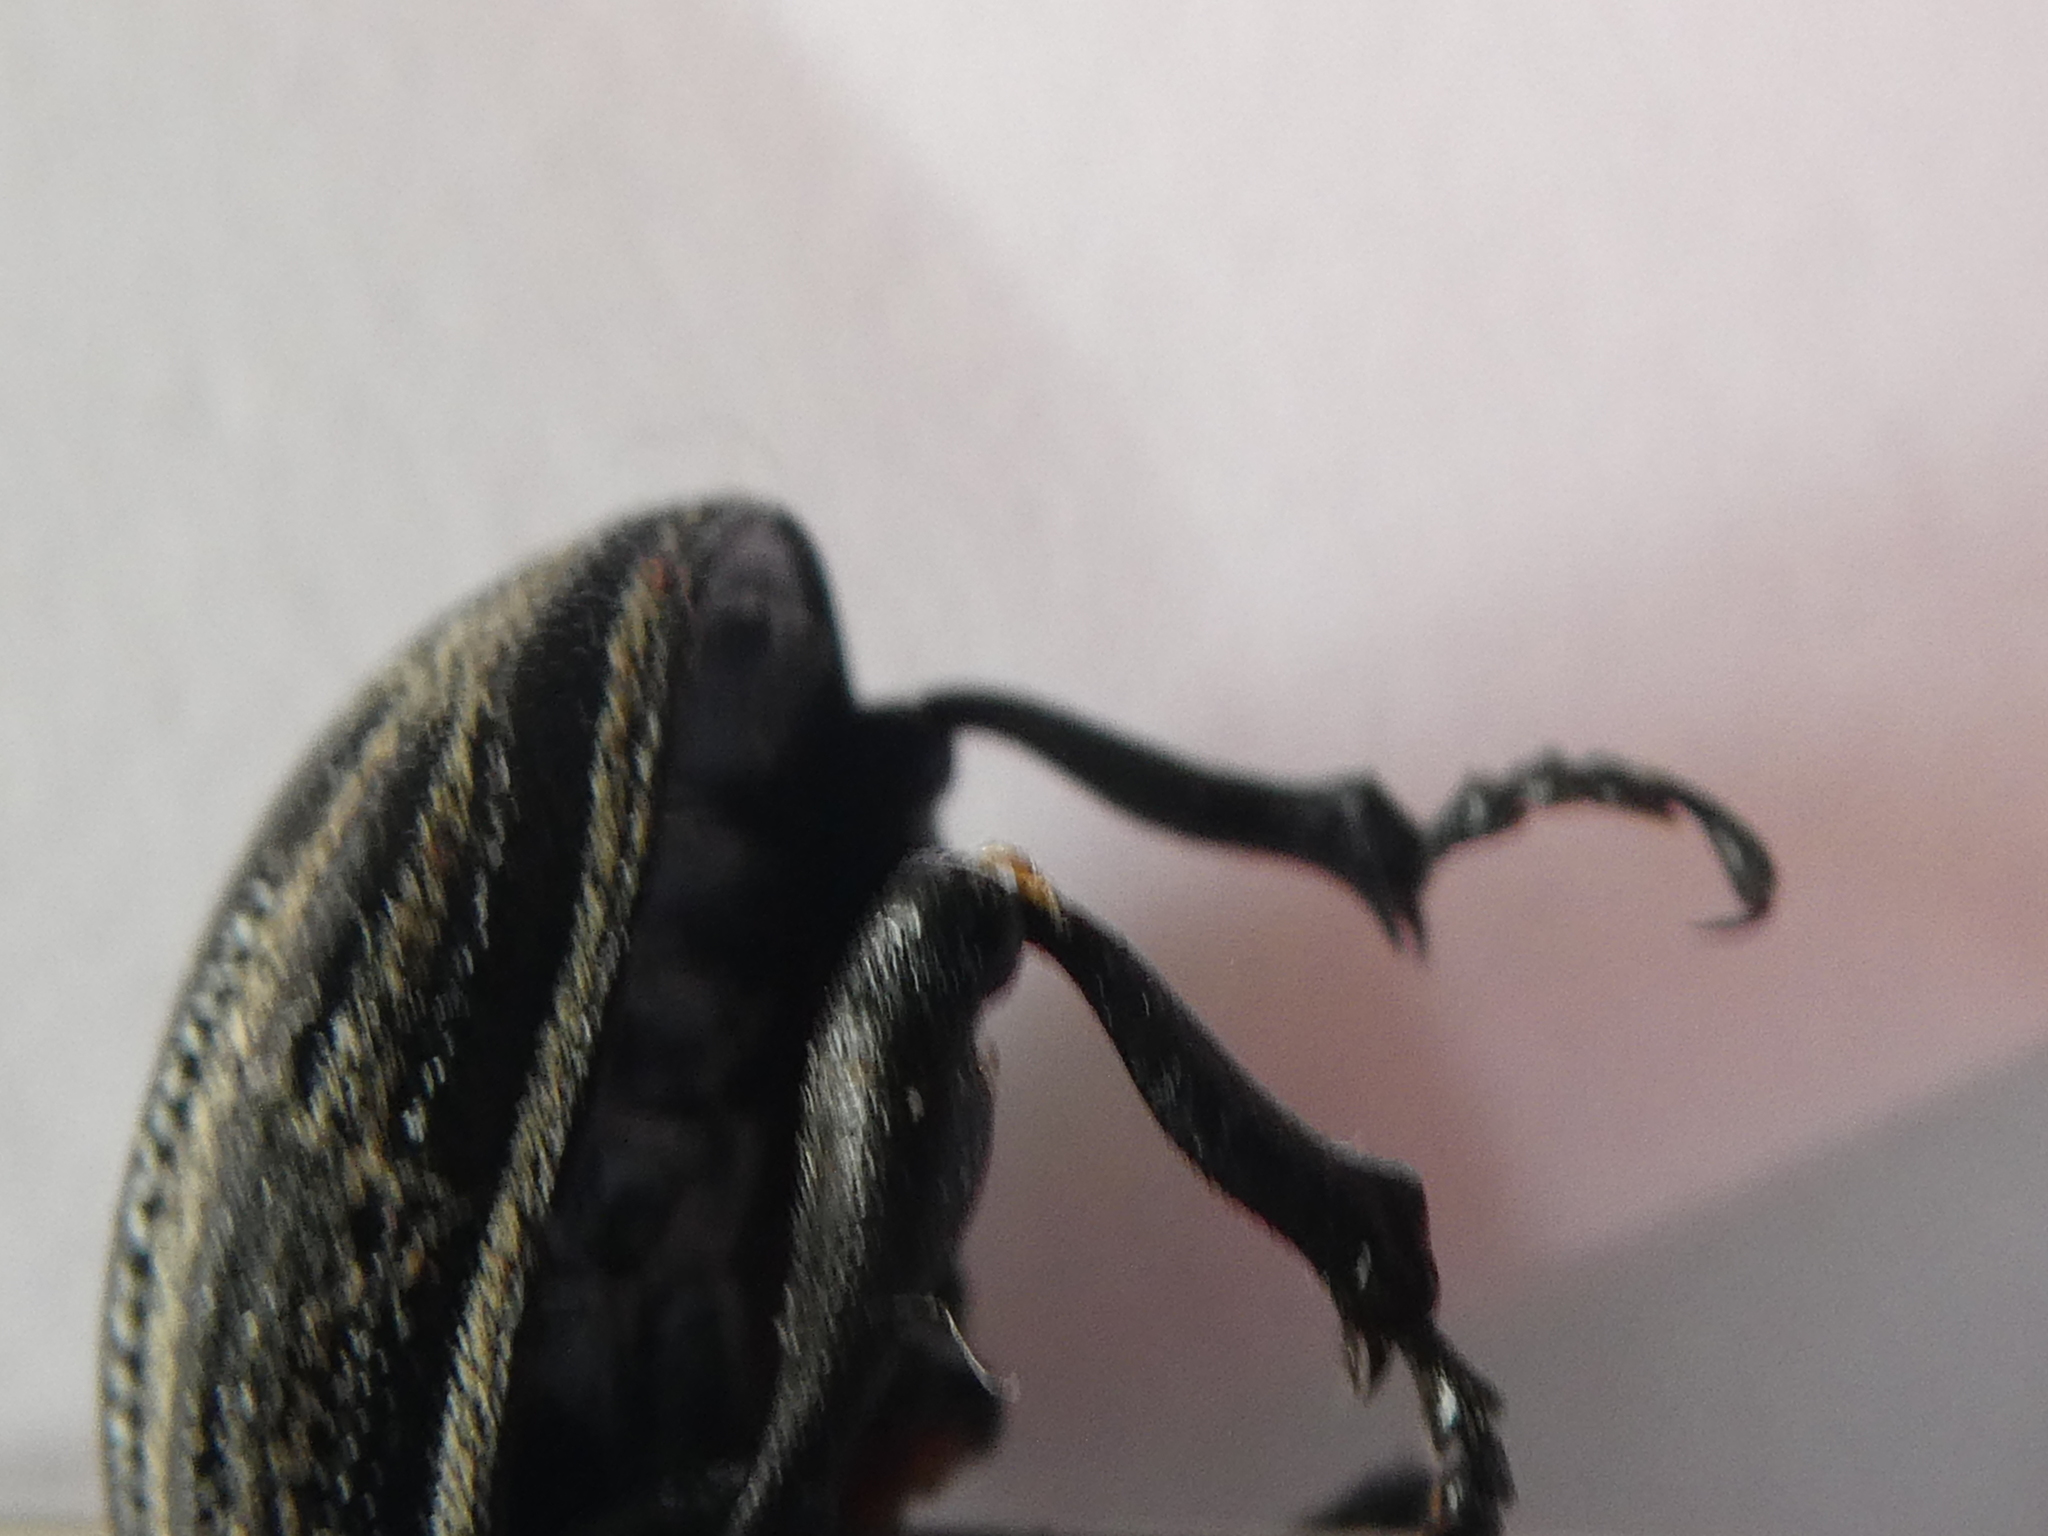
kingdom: Animalia
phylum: Arthropoda
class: Insecta
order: Coleoptera
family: Curculionidae
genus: Lyperobius
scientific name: Lyperobius fallax
